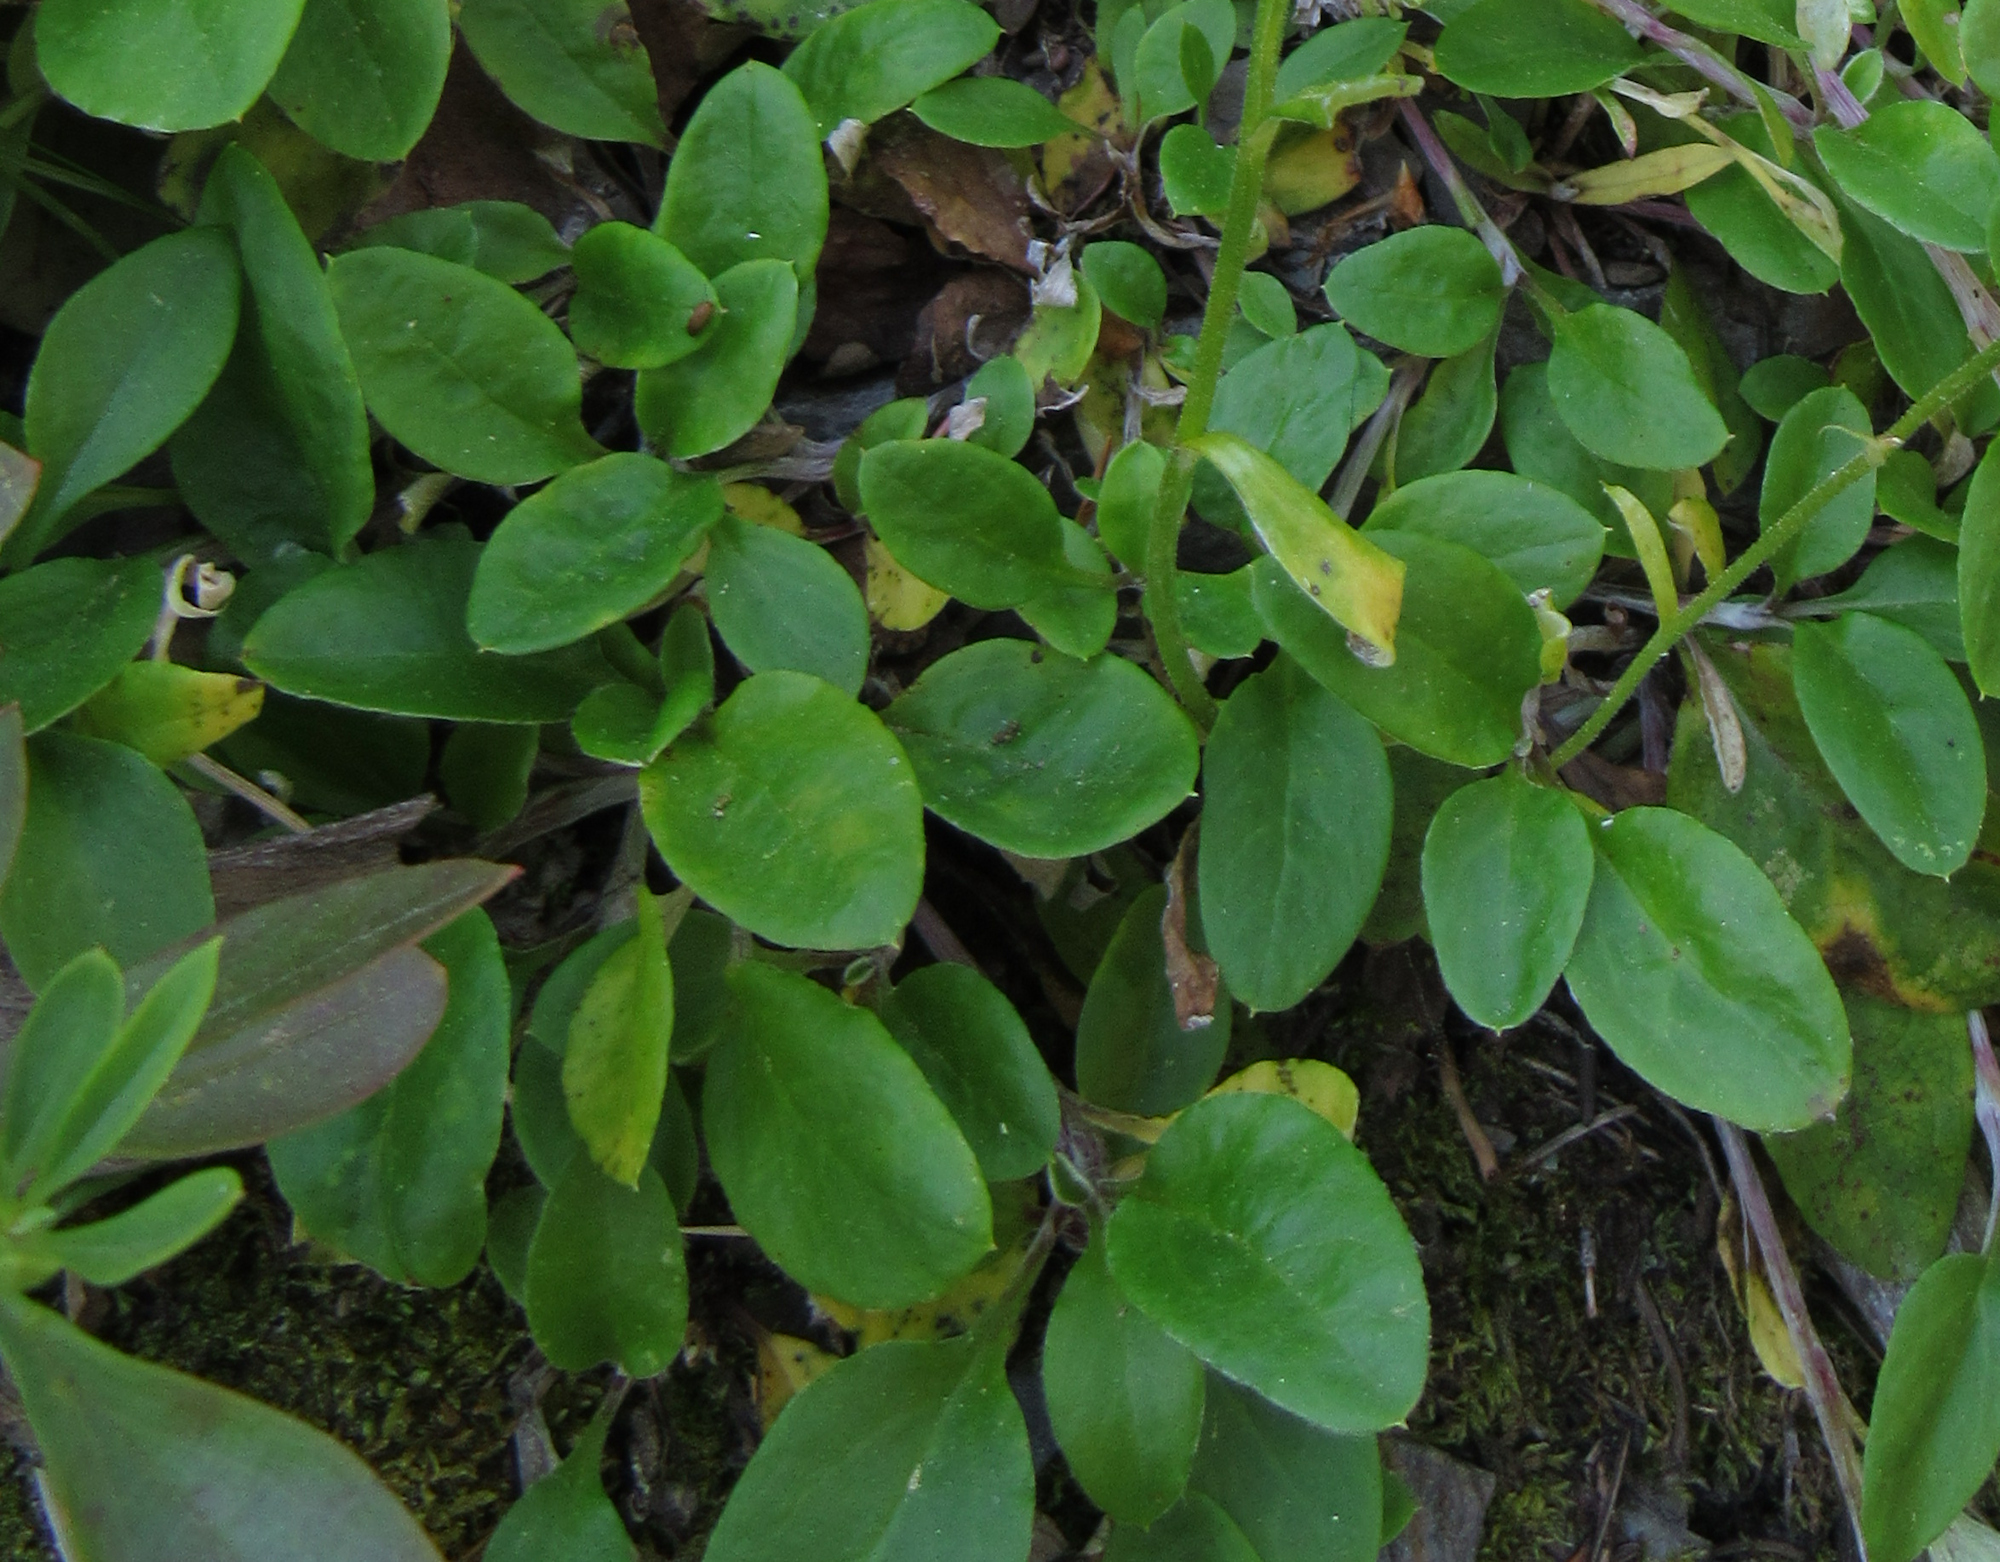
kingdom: Plantae
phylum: Tracheophyta
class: Magnoliopsida
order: Asterales
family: Asteraceae
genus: Antennaria
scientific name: Antennaria racemosa
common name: Racemose pussytoes
